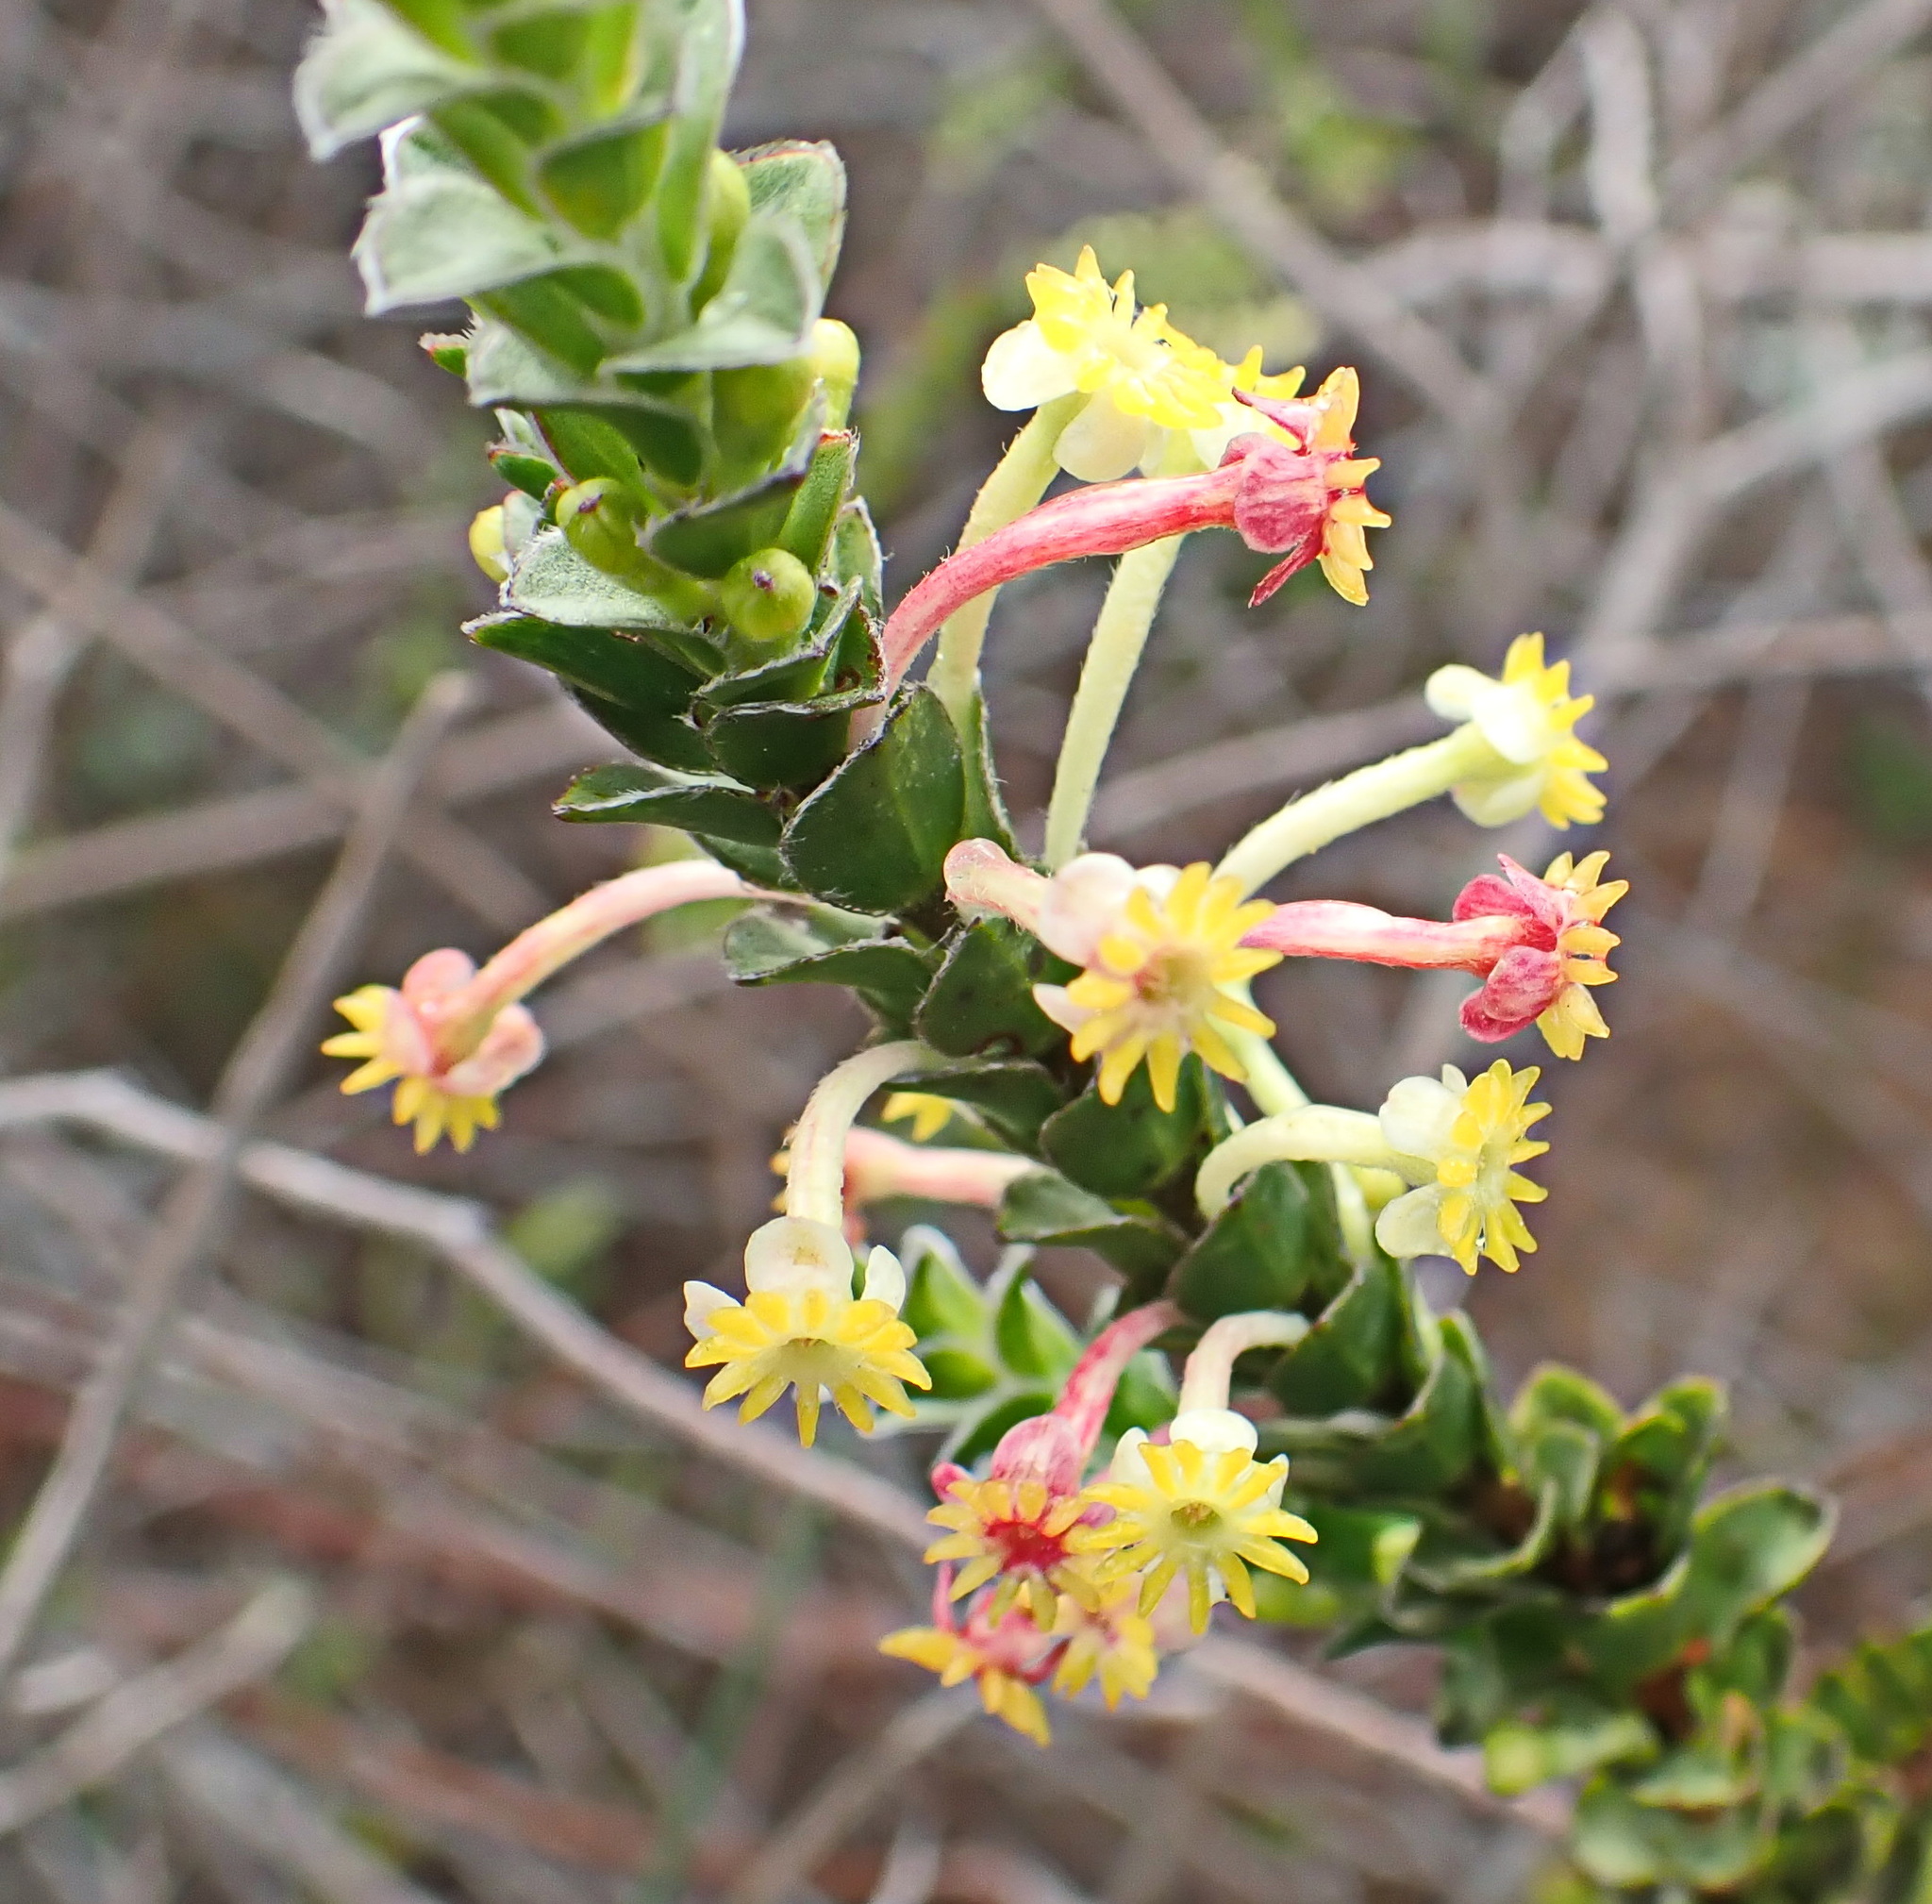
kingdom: Plantae
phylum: Tracheophyta
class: Magnoliopsida
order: Malvales
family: Thymelaeaceae
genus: Struthiola
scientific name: Struthiola argentea
